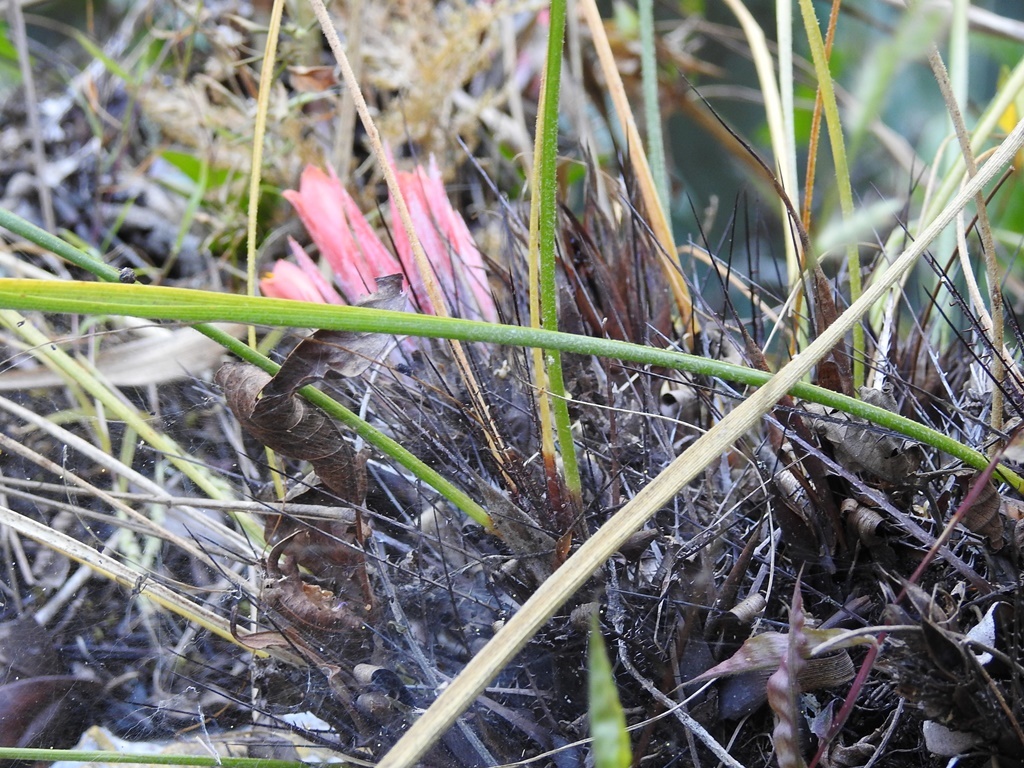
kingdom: Plantae
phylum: Tracheophyta
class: Liliopsida
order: Poales
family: Bromeliaceae
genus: Pitcairnia
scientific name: Pitcairnia heterophylla
